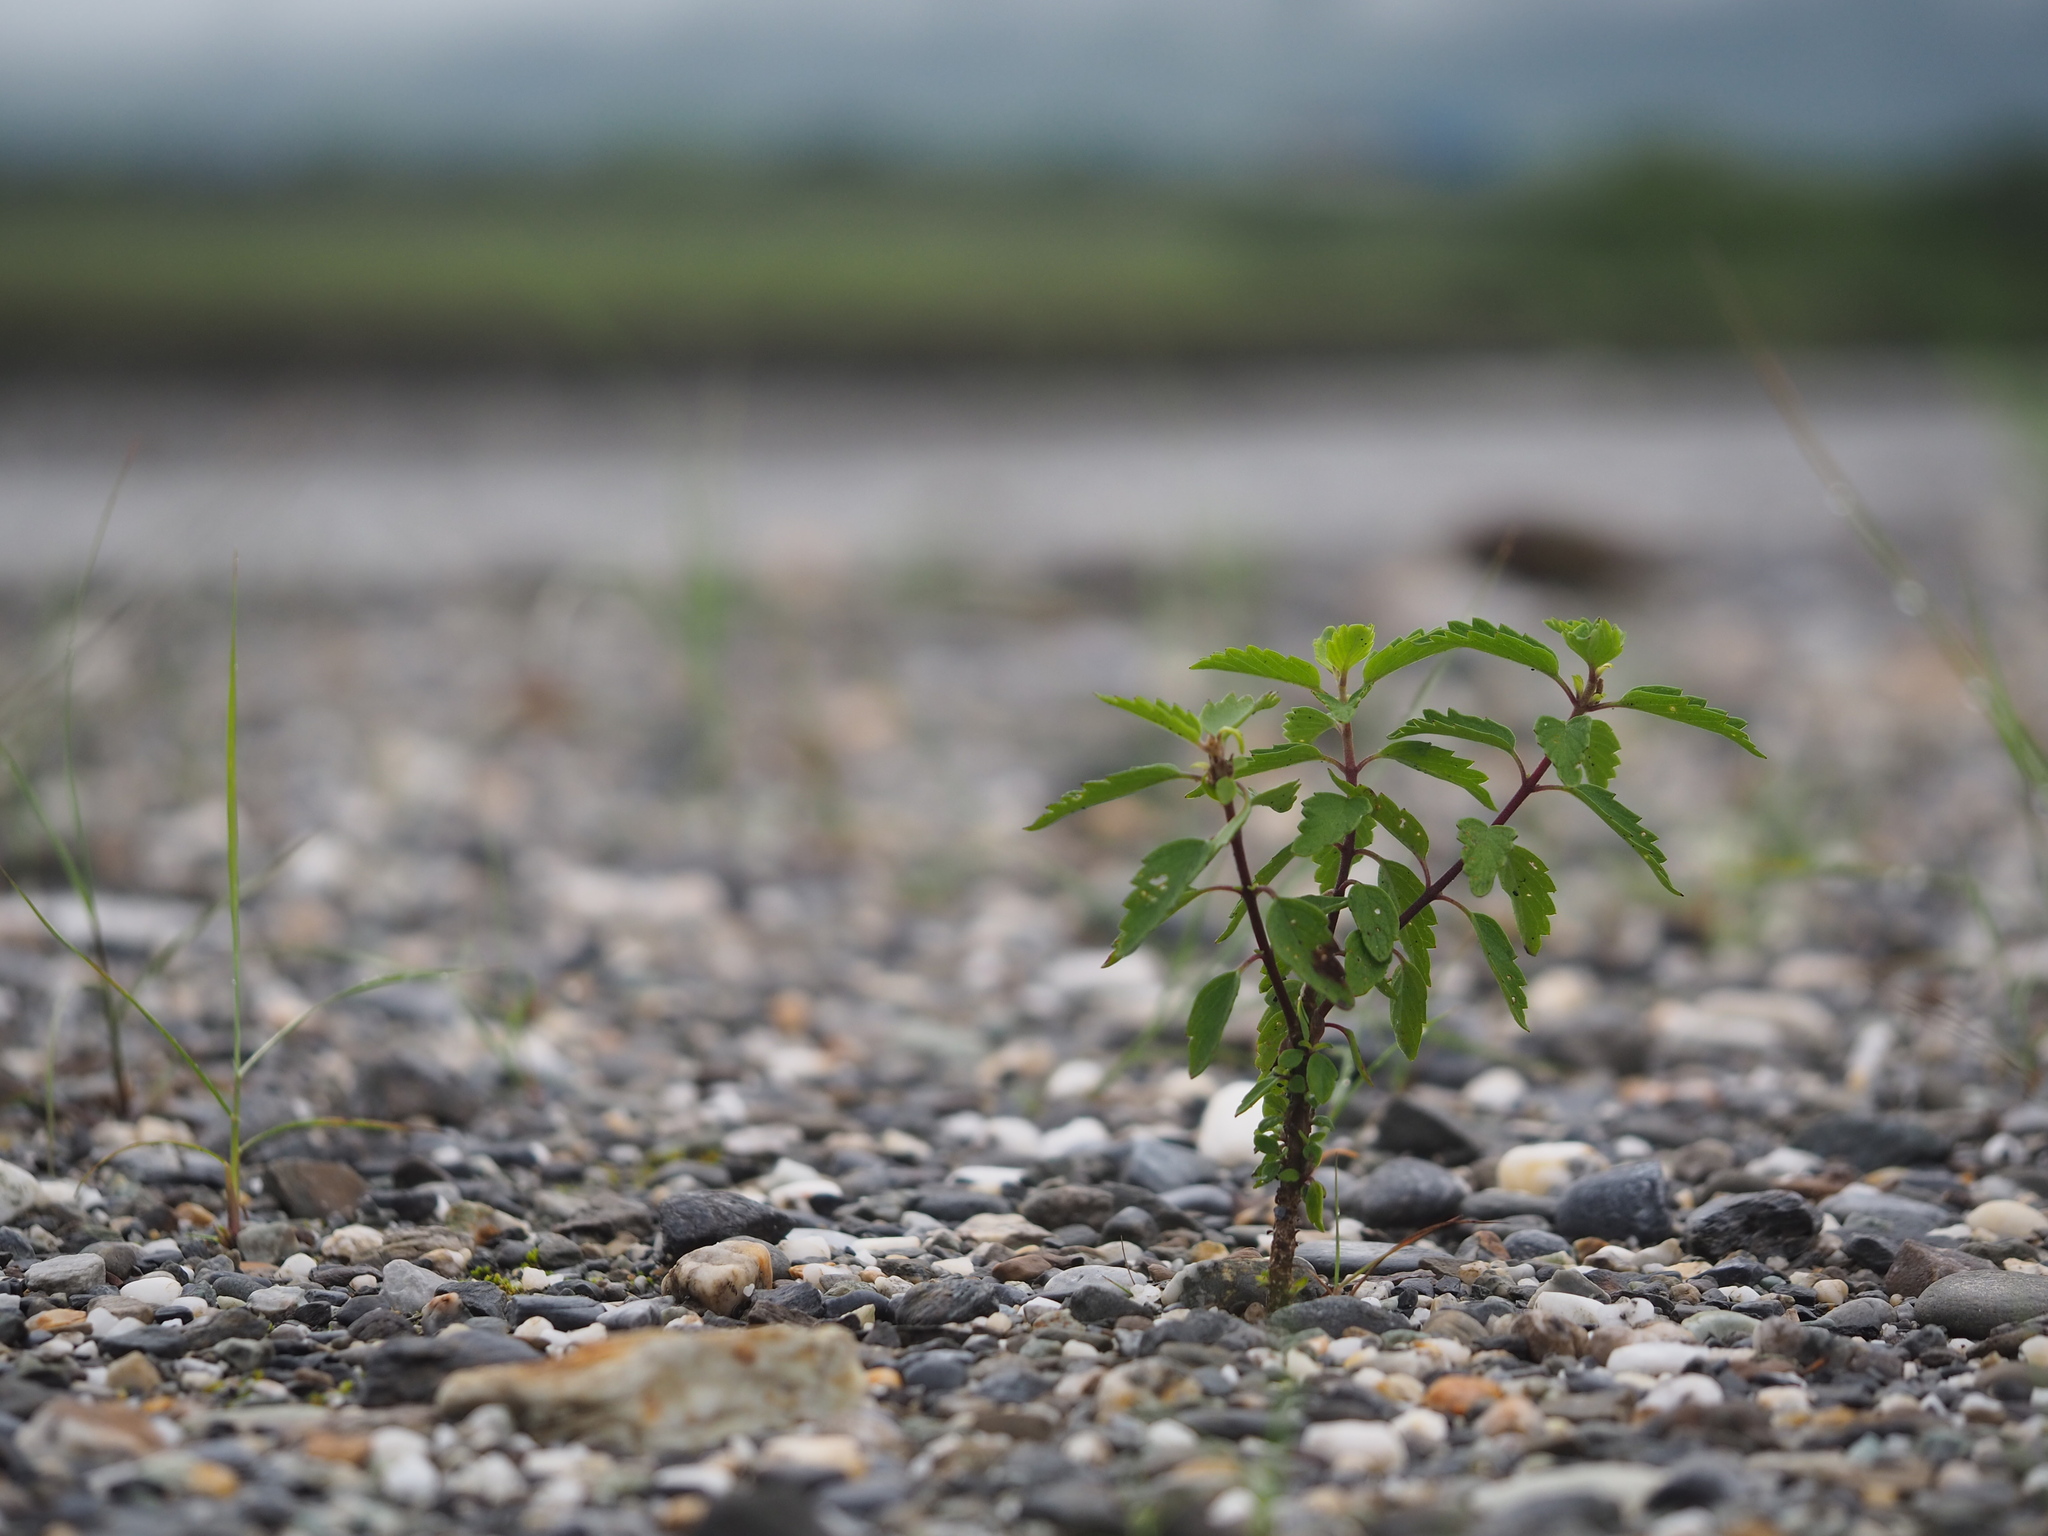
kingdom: Plantae
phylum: Tracheophyta
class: Magnoliopsida
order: Lamiales
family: Lamiaceae
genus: Caryopteris
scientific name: Caryopteris incana
